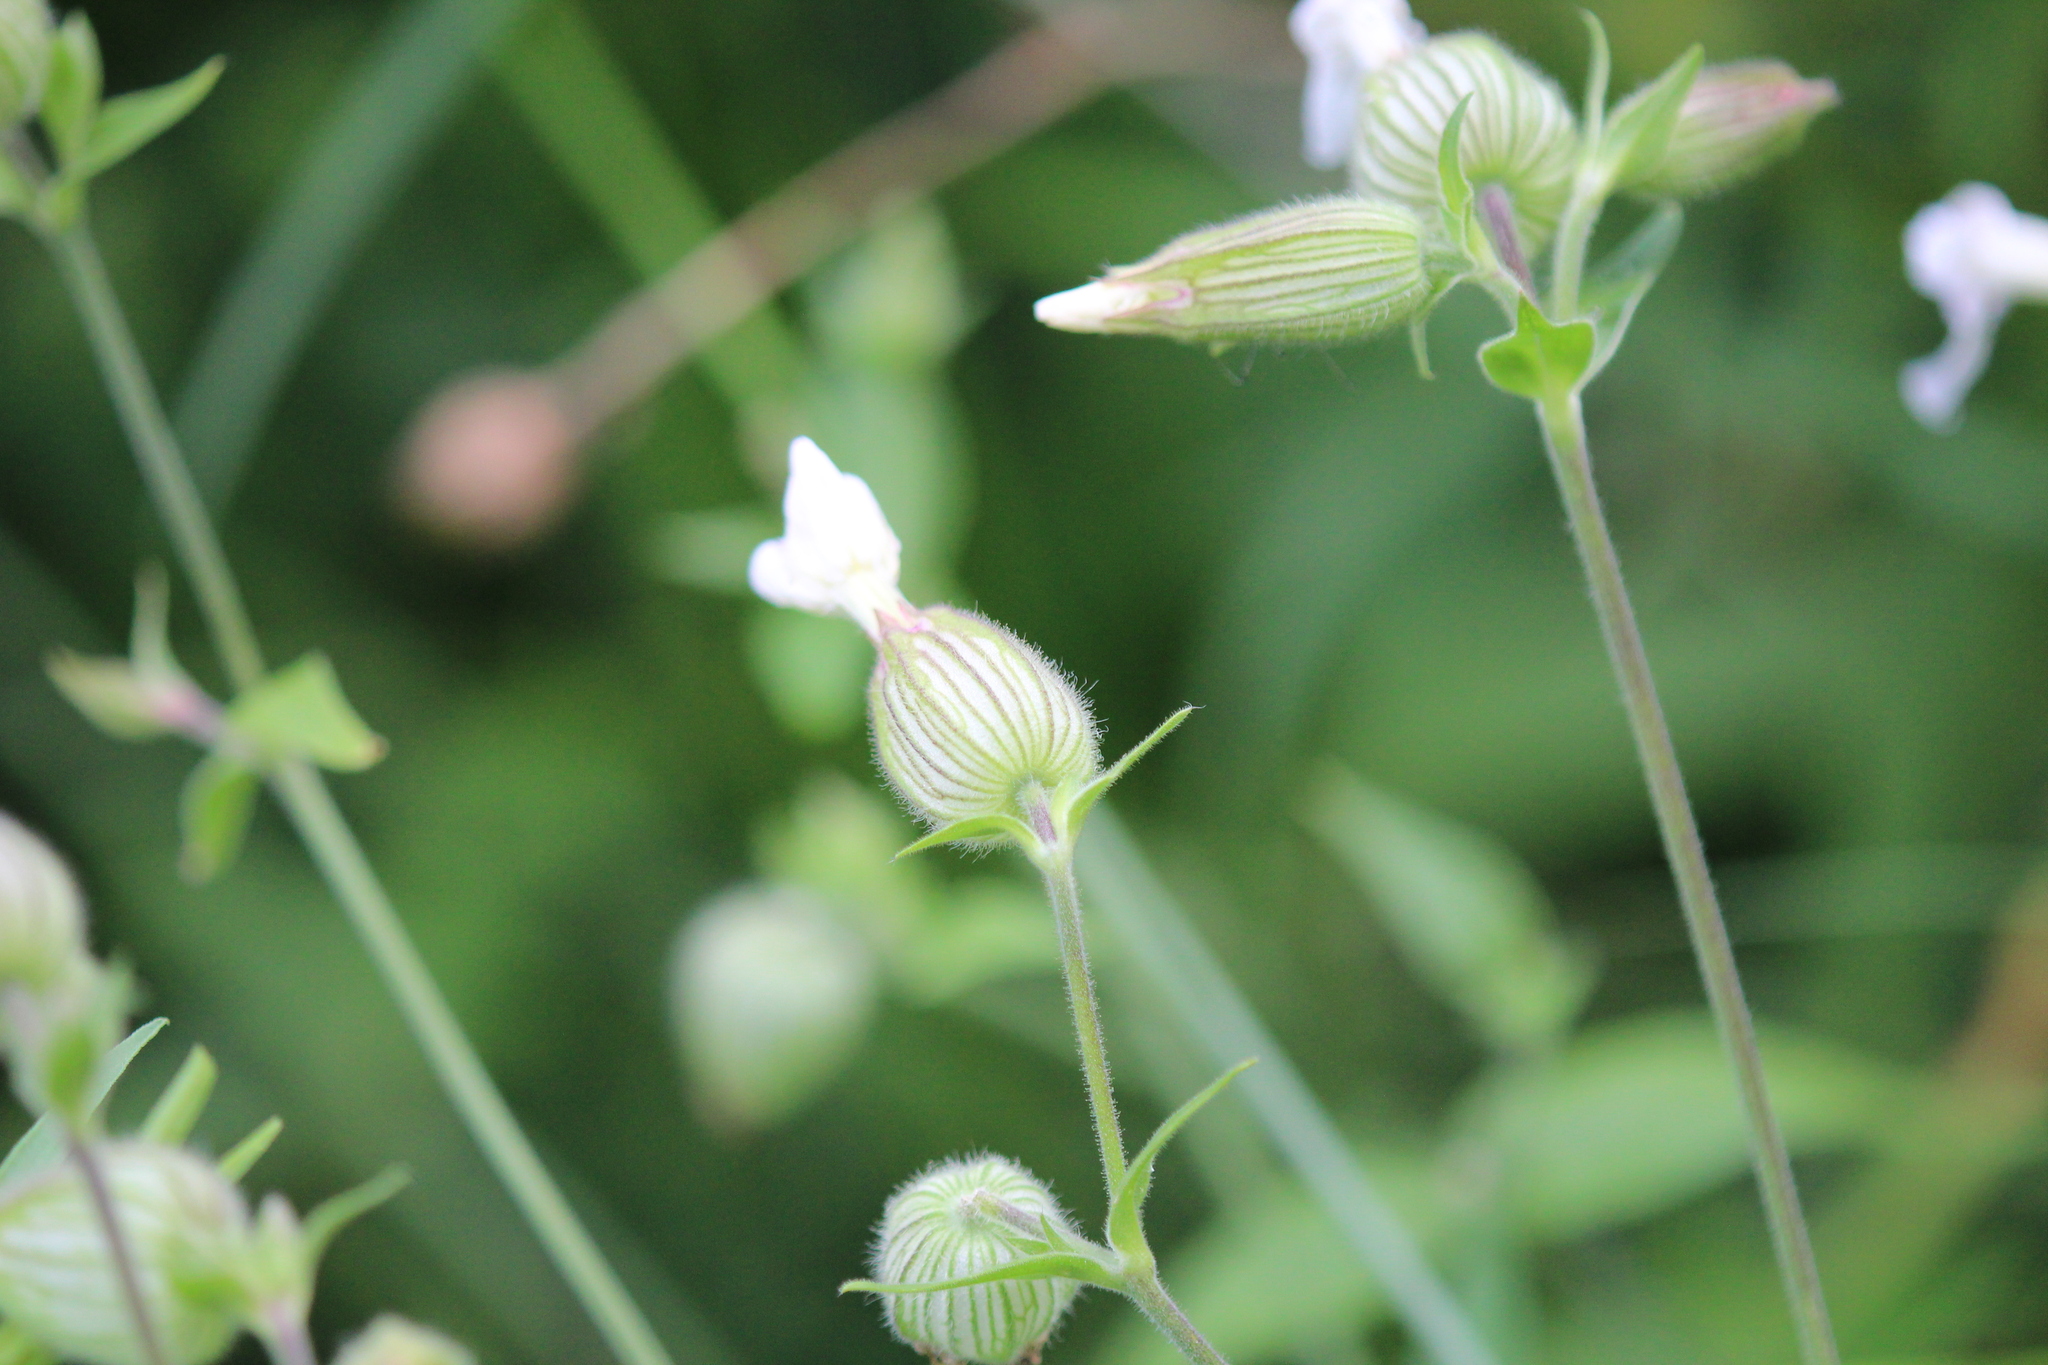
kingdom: Plantae
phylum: Tracheophyta
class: Magnoliopsida
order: Caryophyllales
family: Caryophyllaceae
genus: Silene
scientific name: Silene latifolia
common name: White campion
